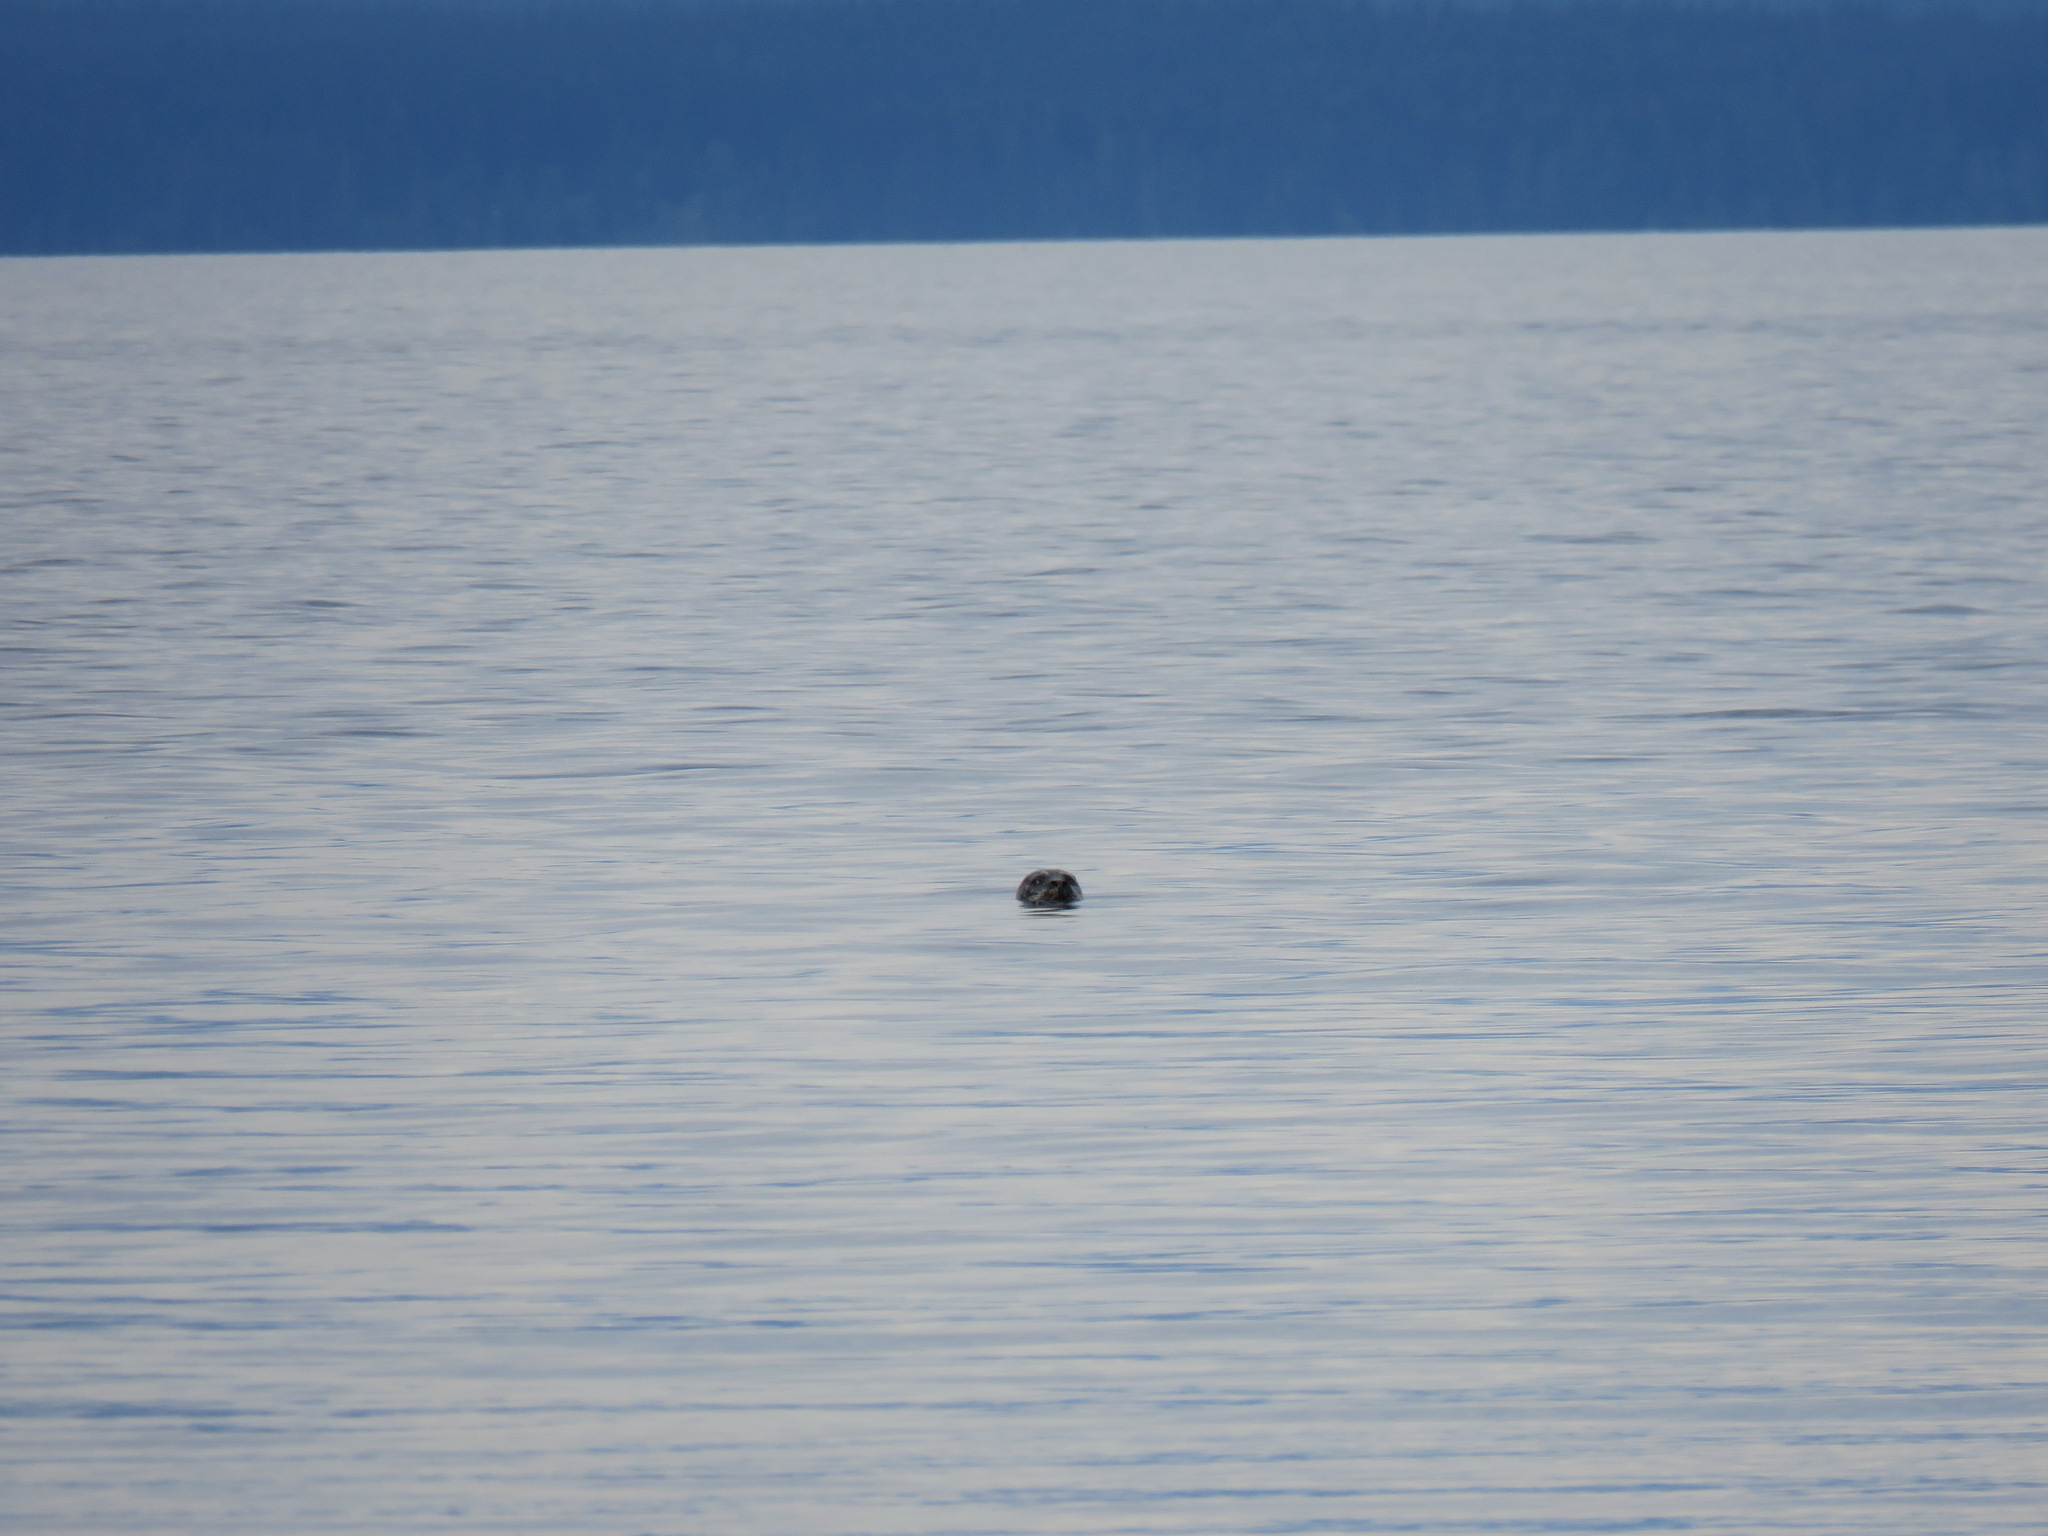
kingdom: Animalia
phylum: Chordata
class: Mammalia
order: Carnivora
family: Phocidae
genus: Phoca
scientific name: Phoca vitulina
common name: Harbor seal
